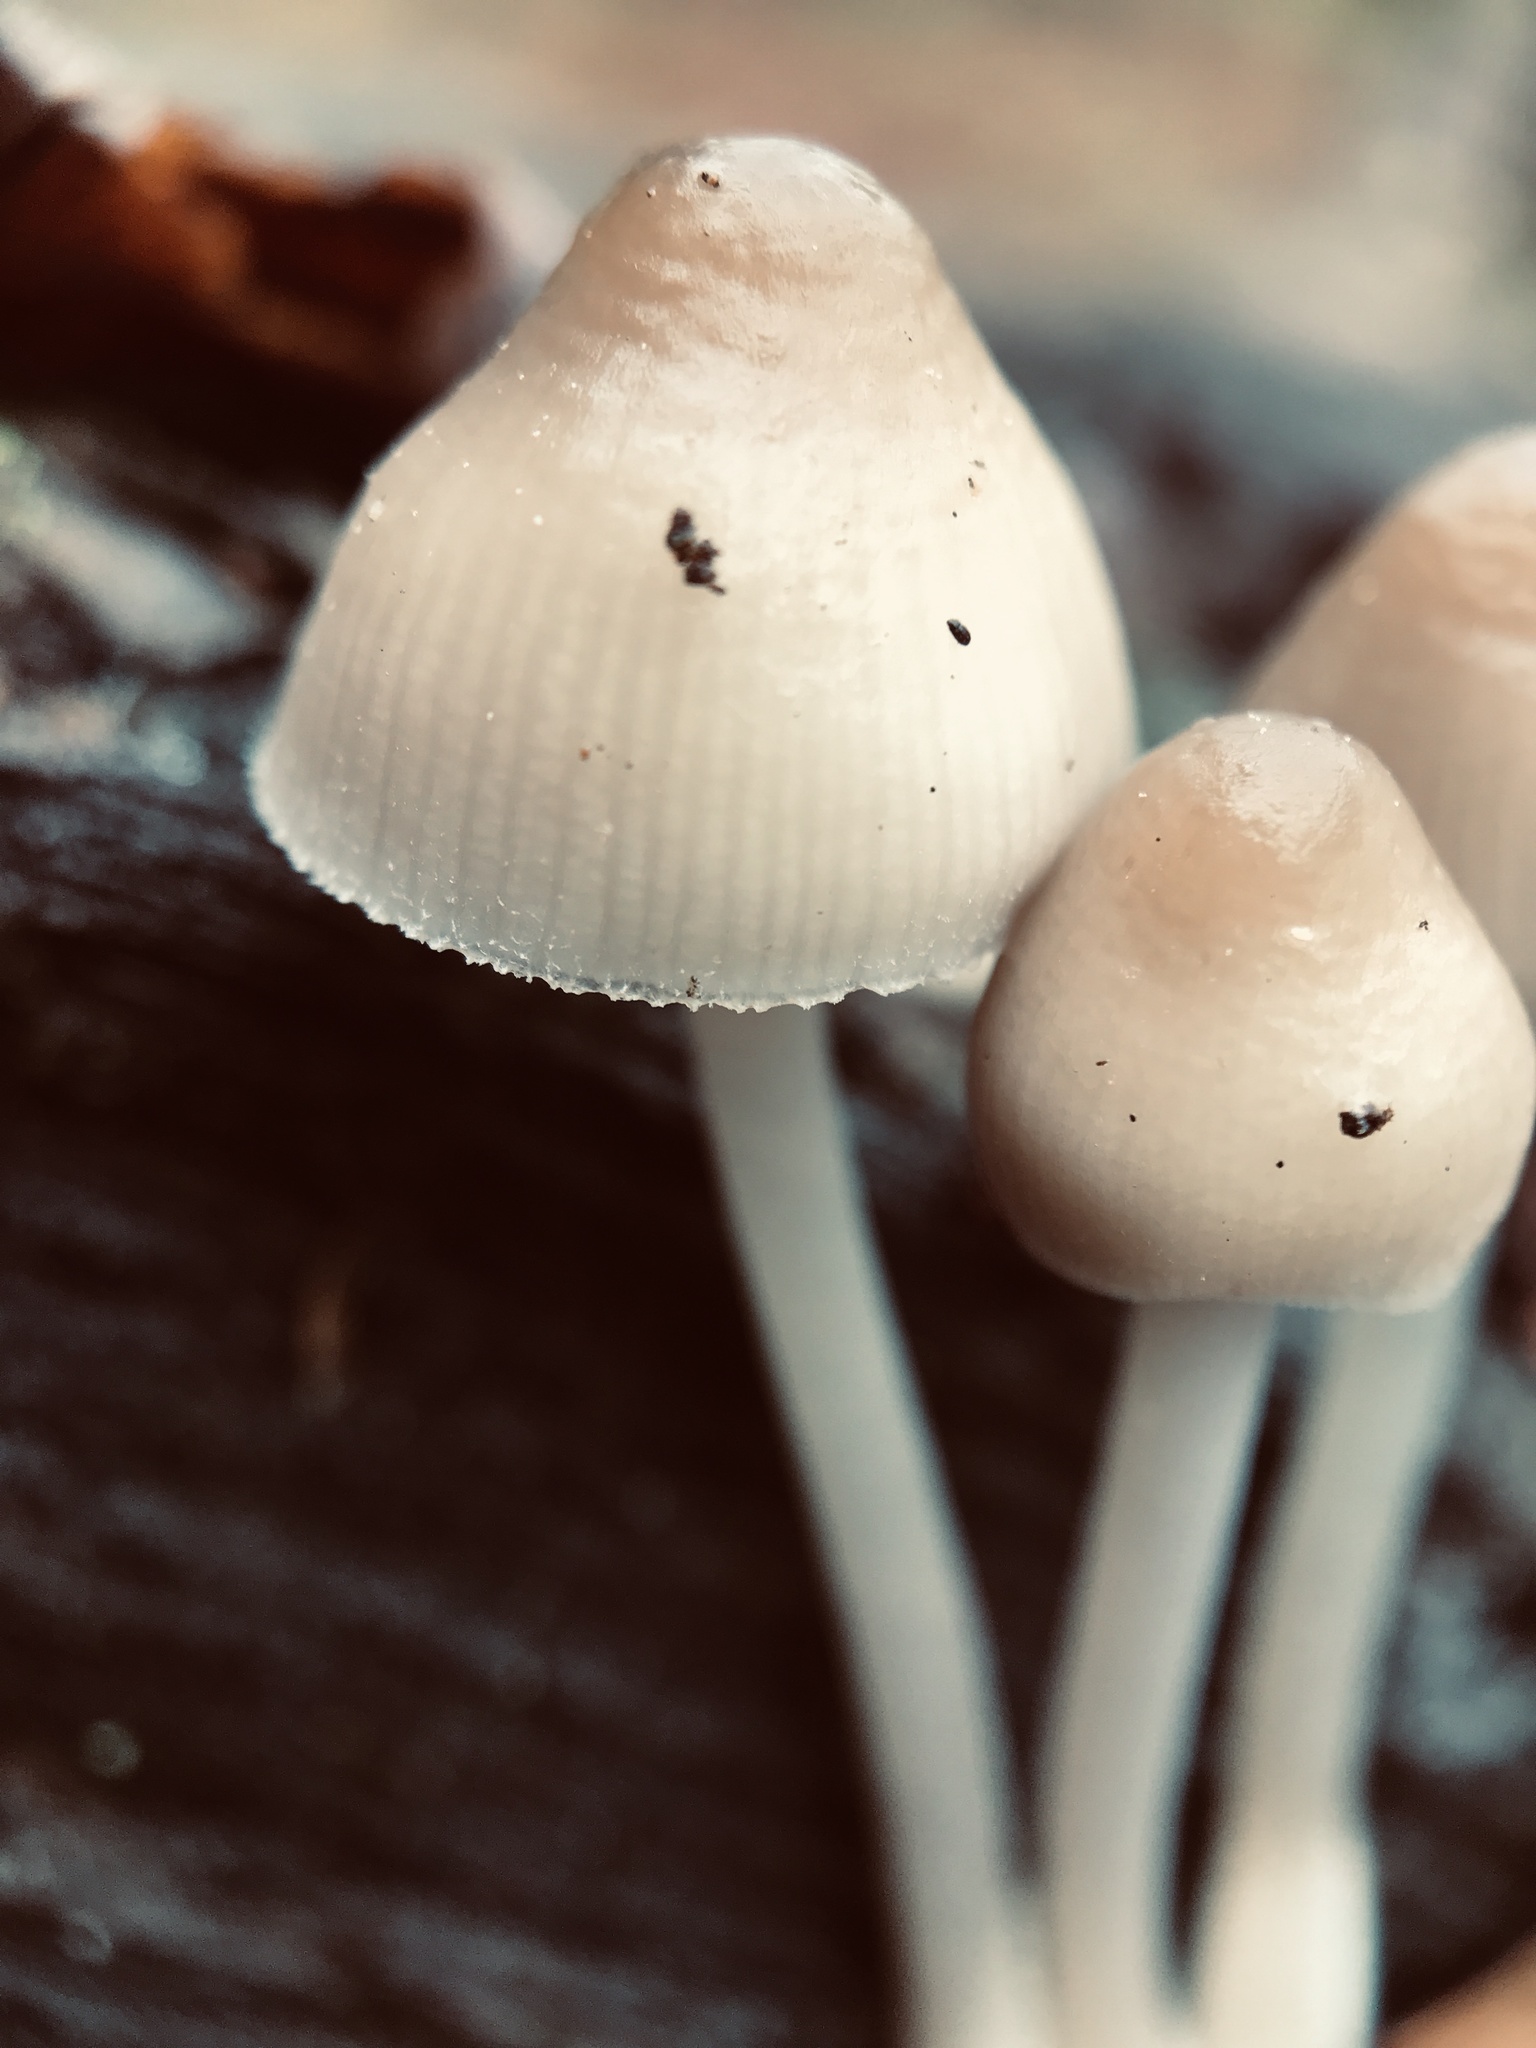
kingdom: Fungi
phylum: Basidiomycota
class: Agaricomycetes
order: Agaricales
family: Mycenaceae
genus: Mycena
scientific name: Mycena galericulata
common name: Bonnet mycena
